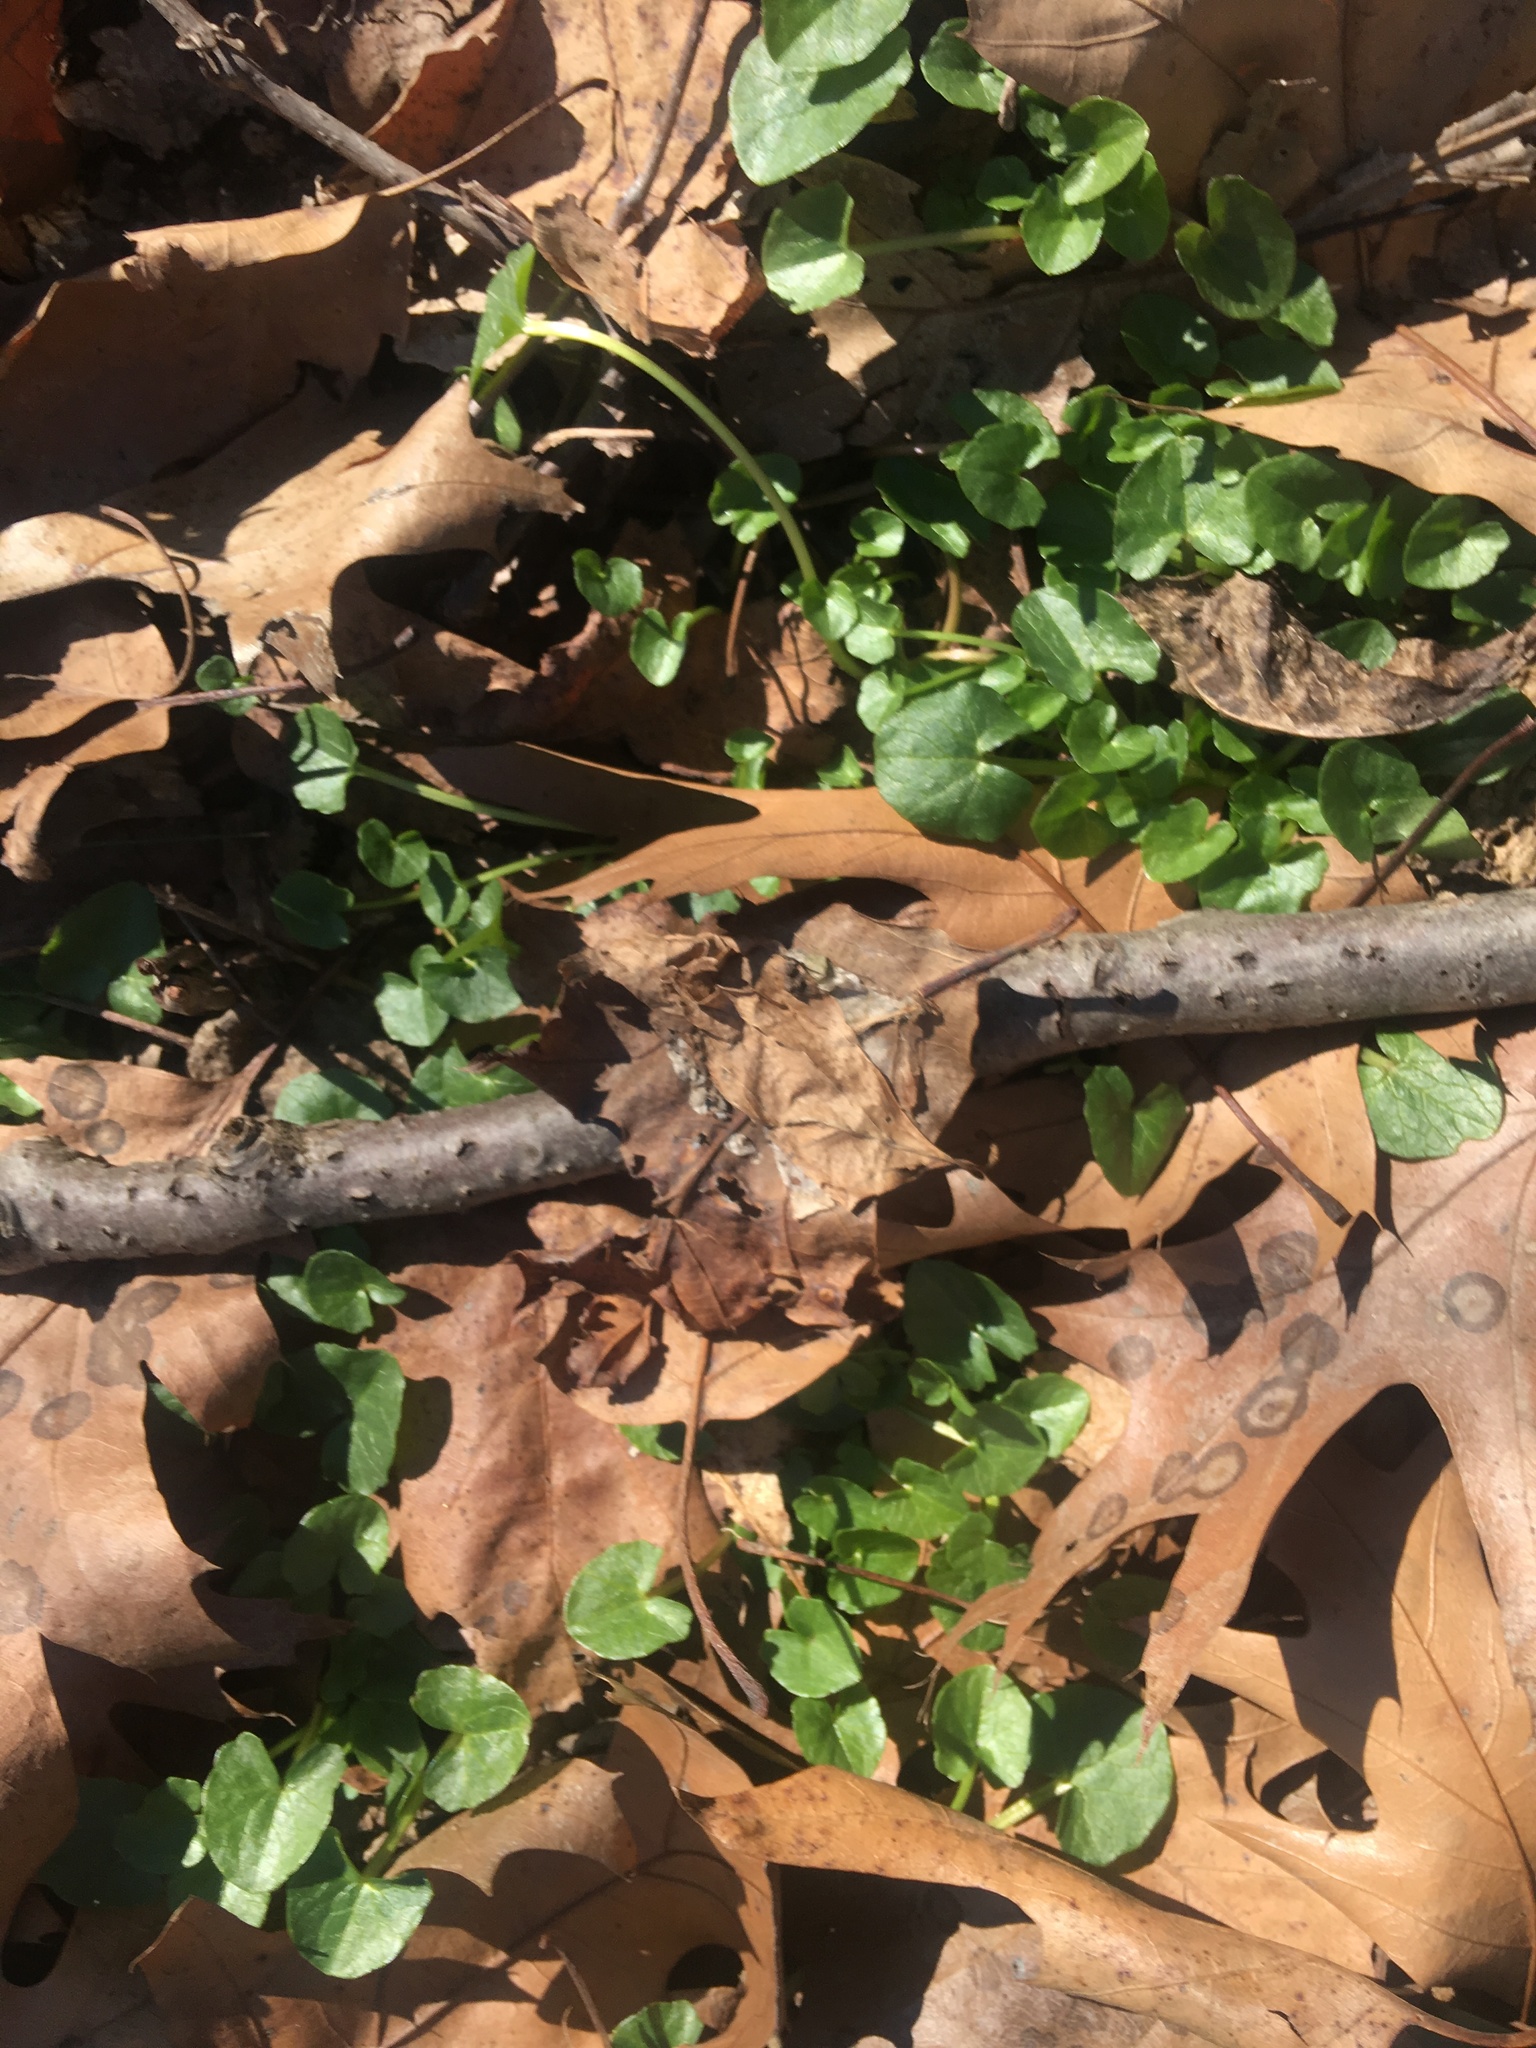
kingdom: Plantae
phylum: Tracheophyta
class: Magnoliopsida
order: Ranunculales
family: Ranunculaceae
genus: Ficaria
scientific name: Ficaria verna
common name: Lesser celandine
